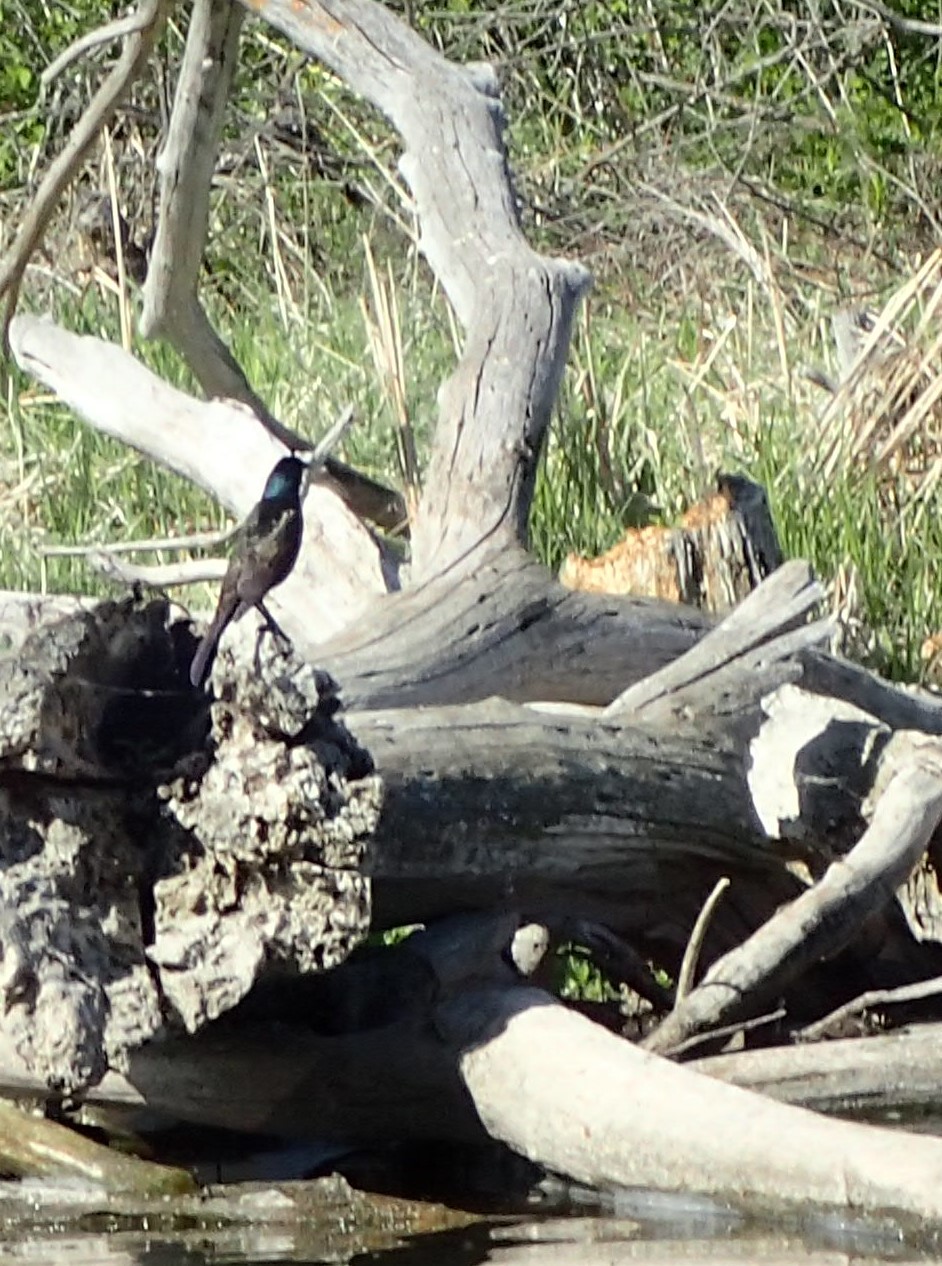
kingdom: Animalia
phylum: Chordata
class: Aves
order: Passeriformes
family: Icteridae
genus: Quiscalus
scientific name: Quiscalus quiscula
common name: Common grackle
